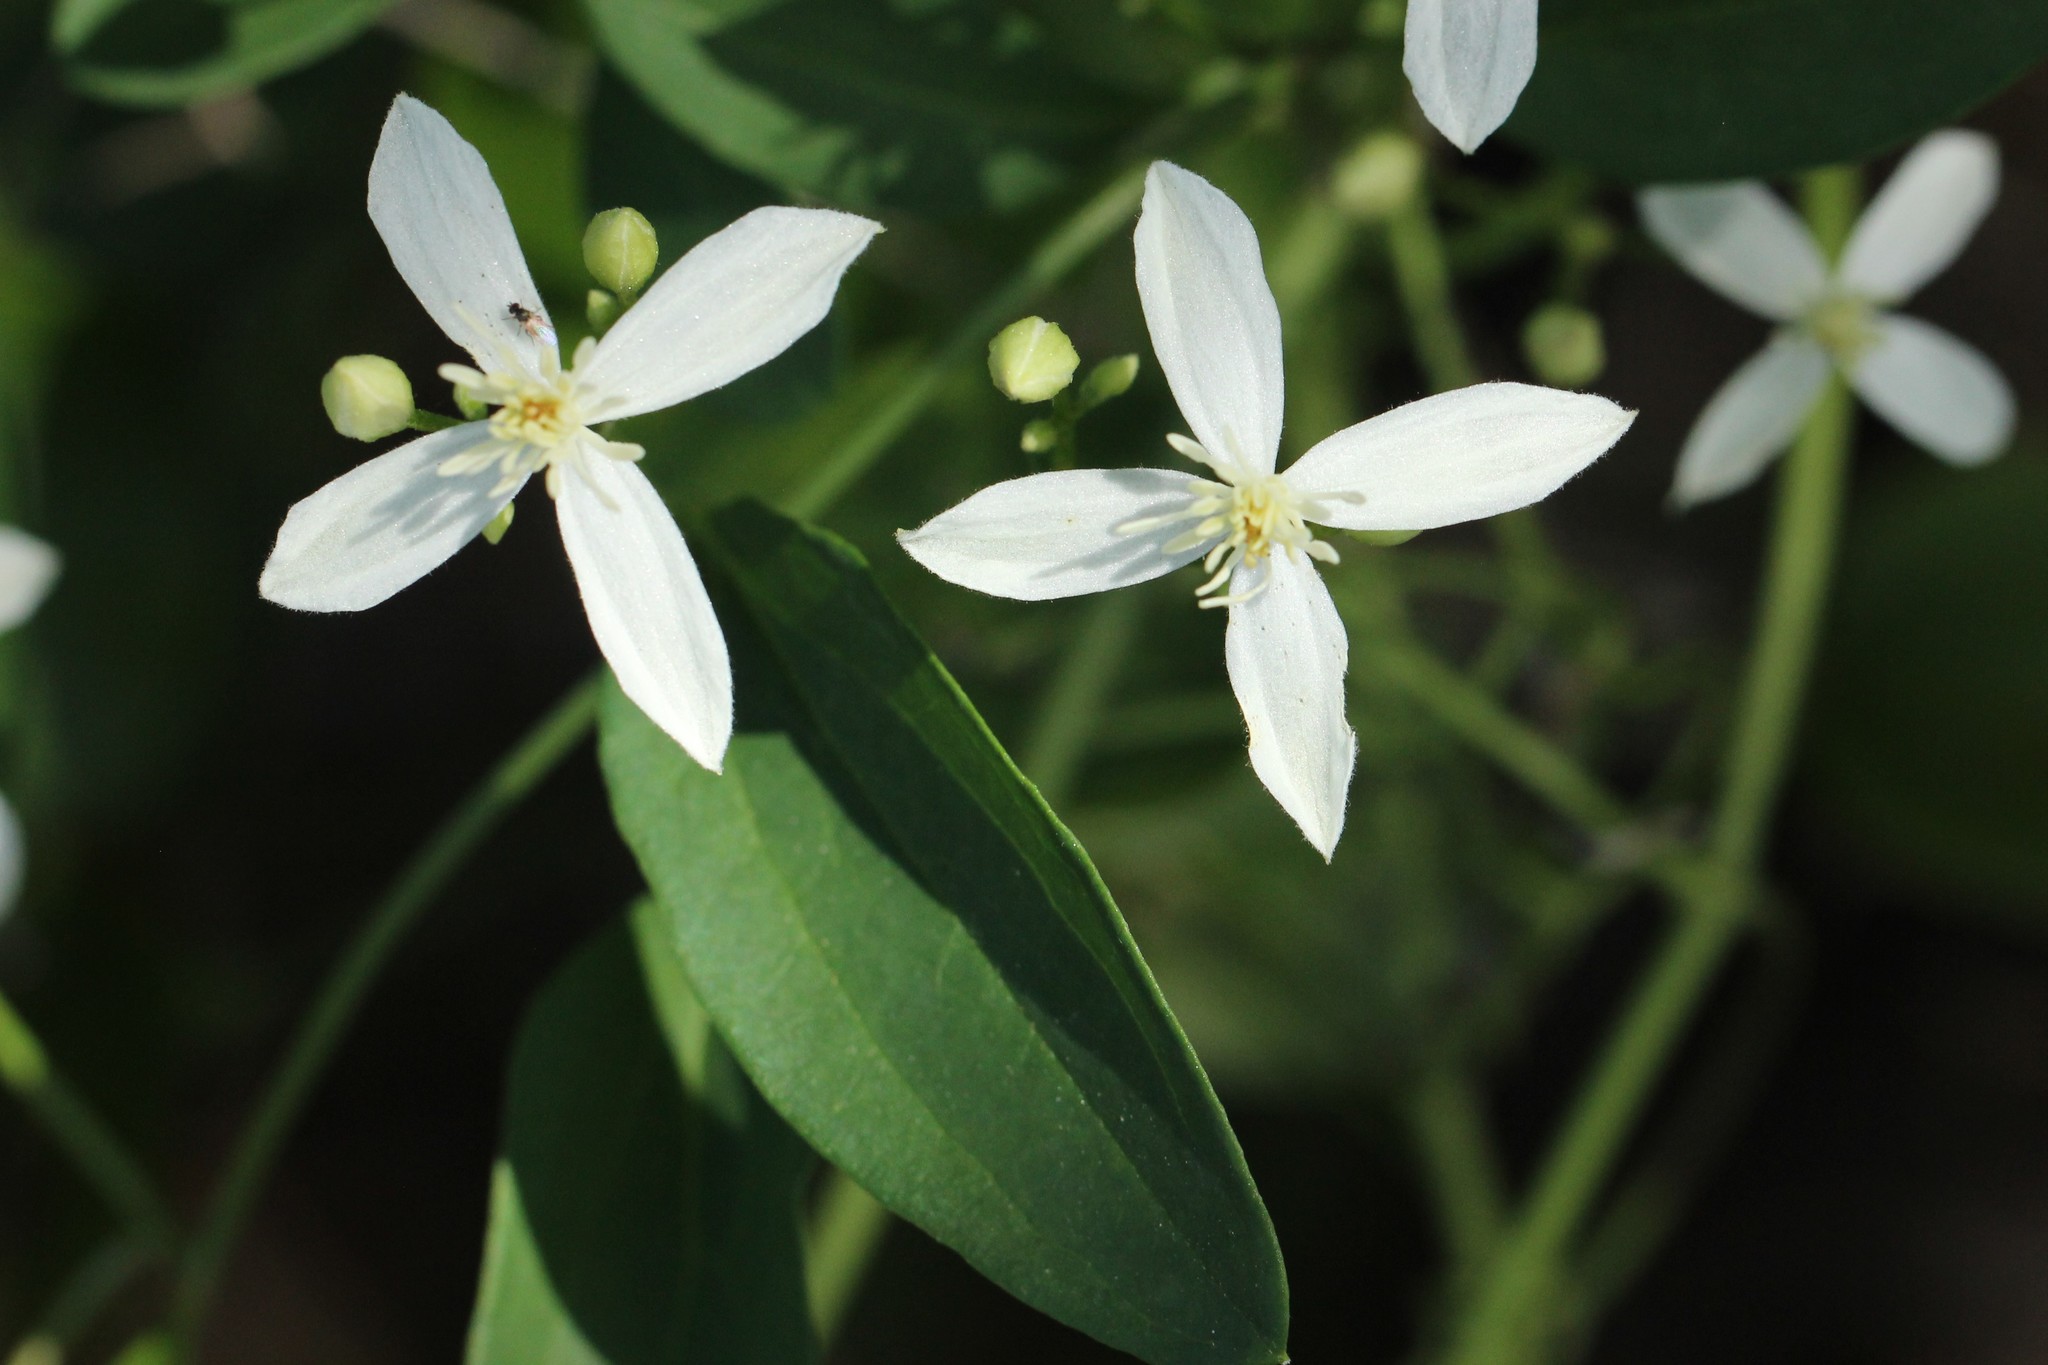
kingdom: Plantae
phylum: Tracheophyta
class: Magnoliopsida
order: Ranunculales
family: Ranunculaceae
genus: Clematis
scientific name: Clematis terniflora
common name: Sweet autumn clematis
